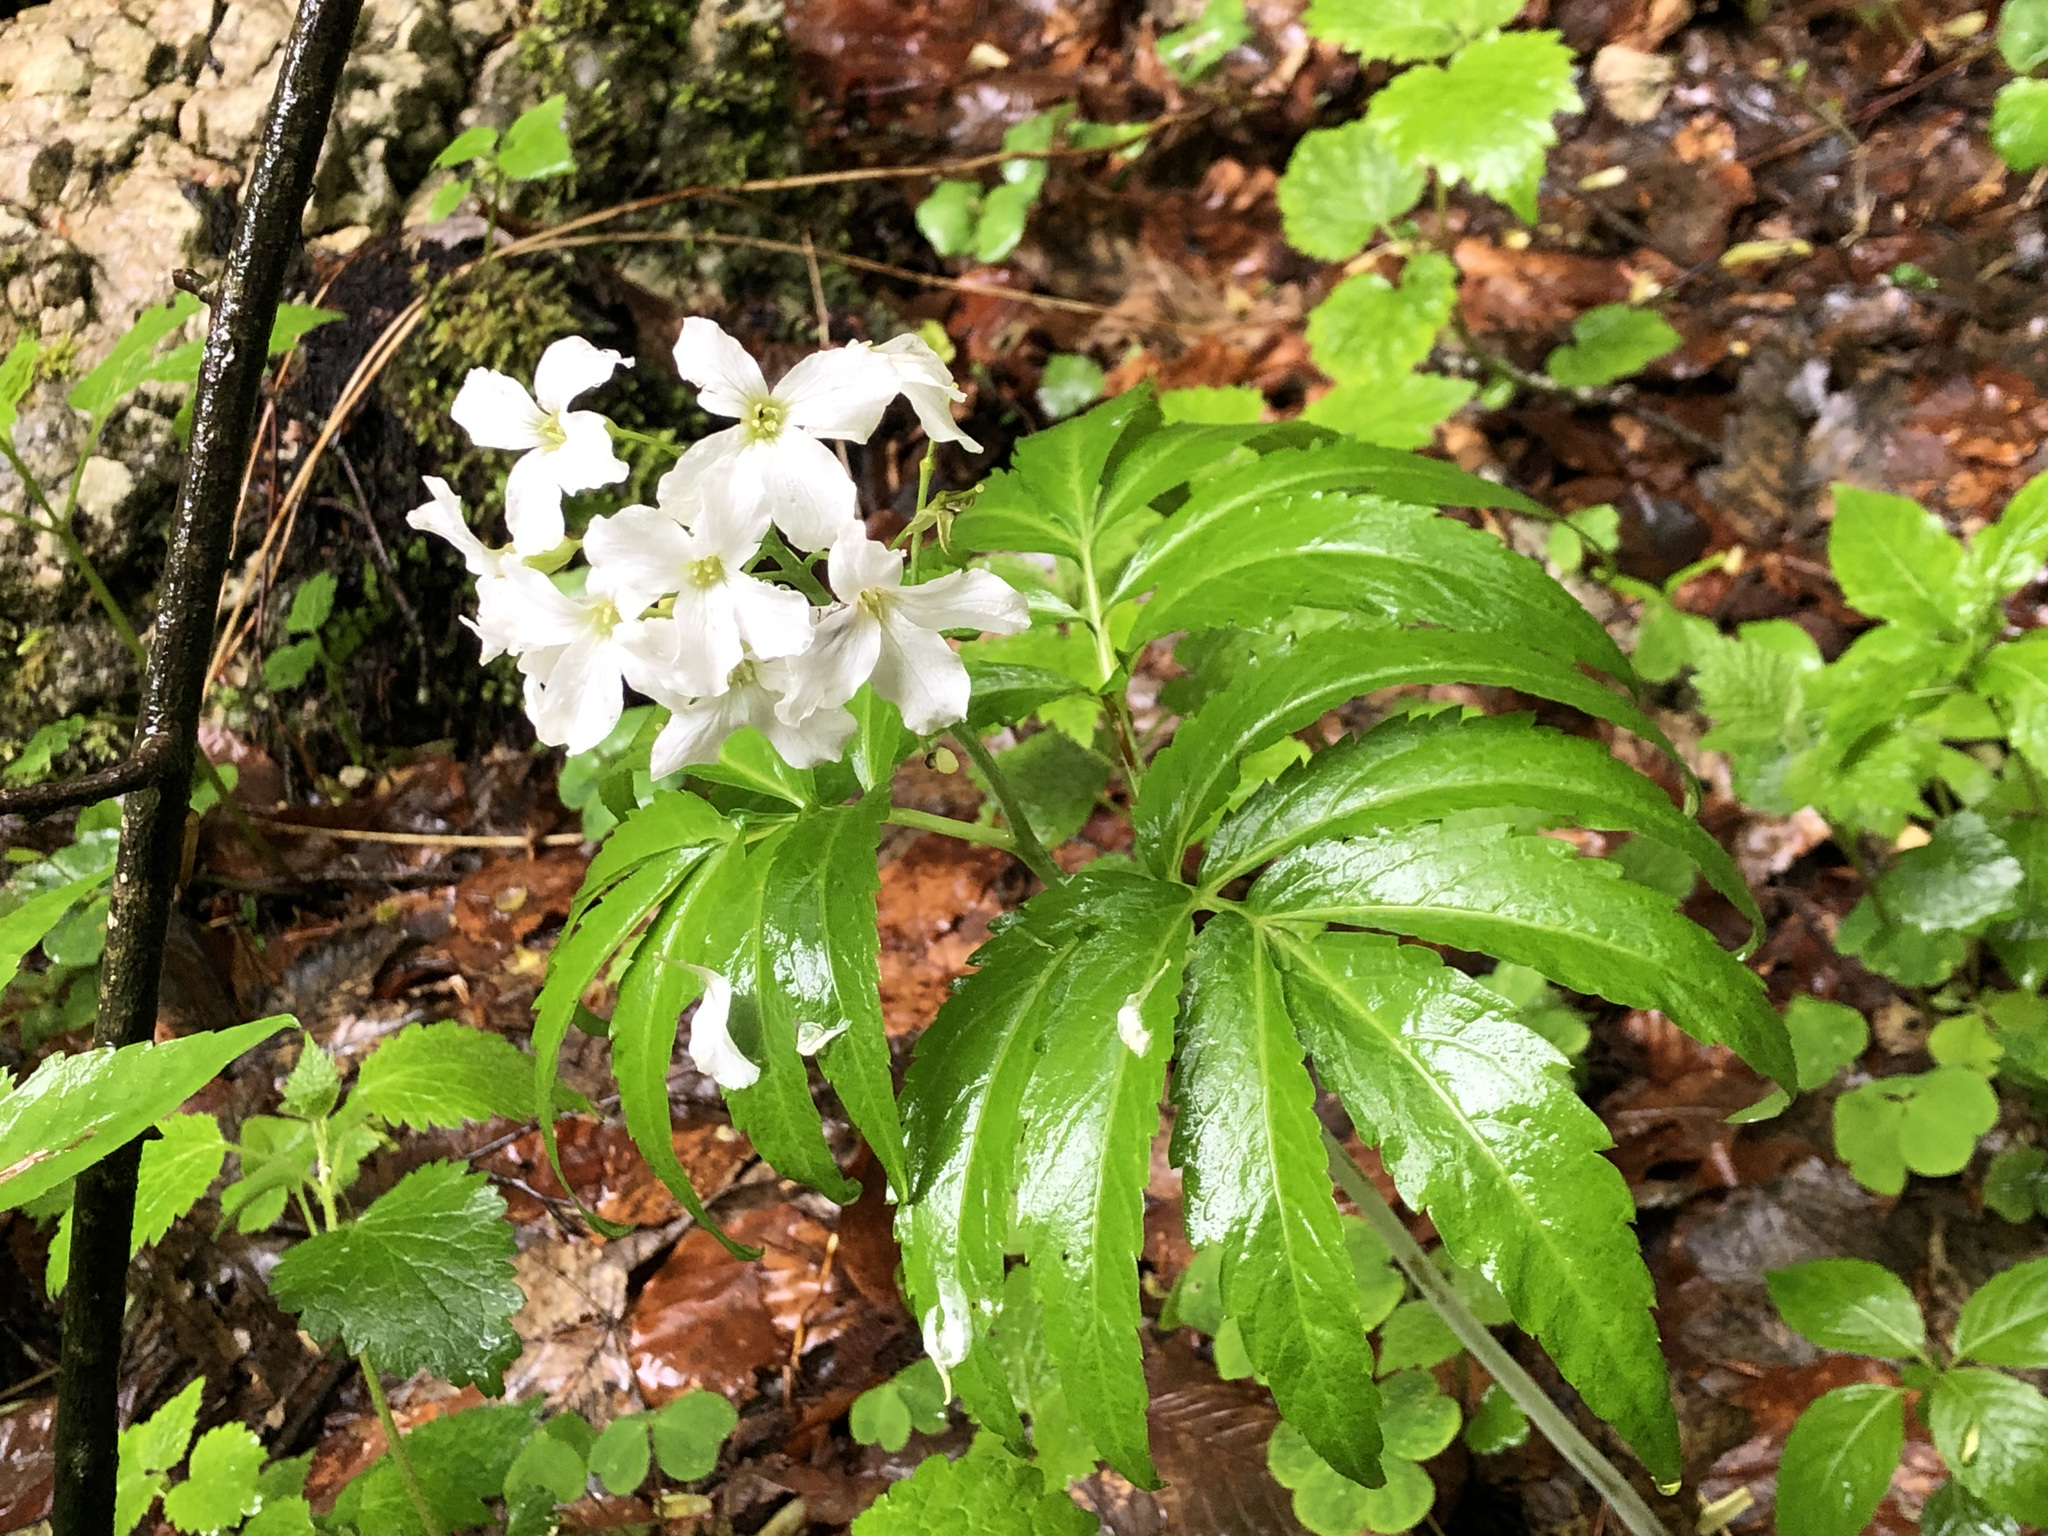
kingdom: Plantae
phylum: Tracheophyta
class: Magnoliopsida
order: Brassicales
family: Brassicaceae
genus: Cardamine
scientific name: Cardamine heptaphylla
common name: Pinnate coralroot
